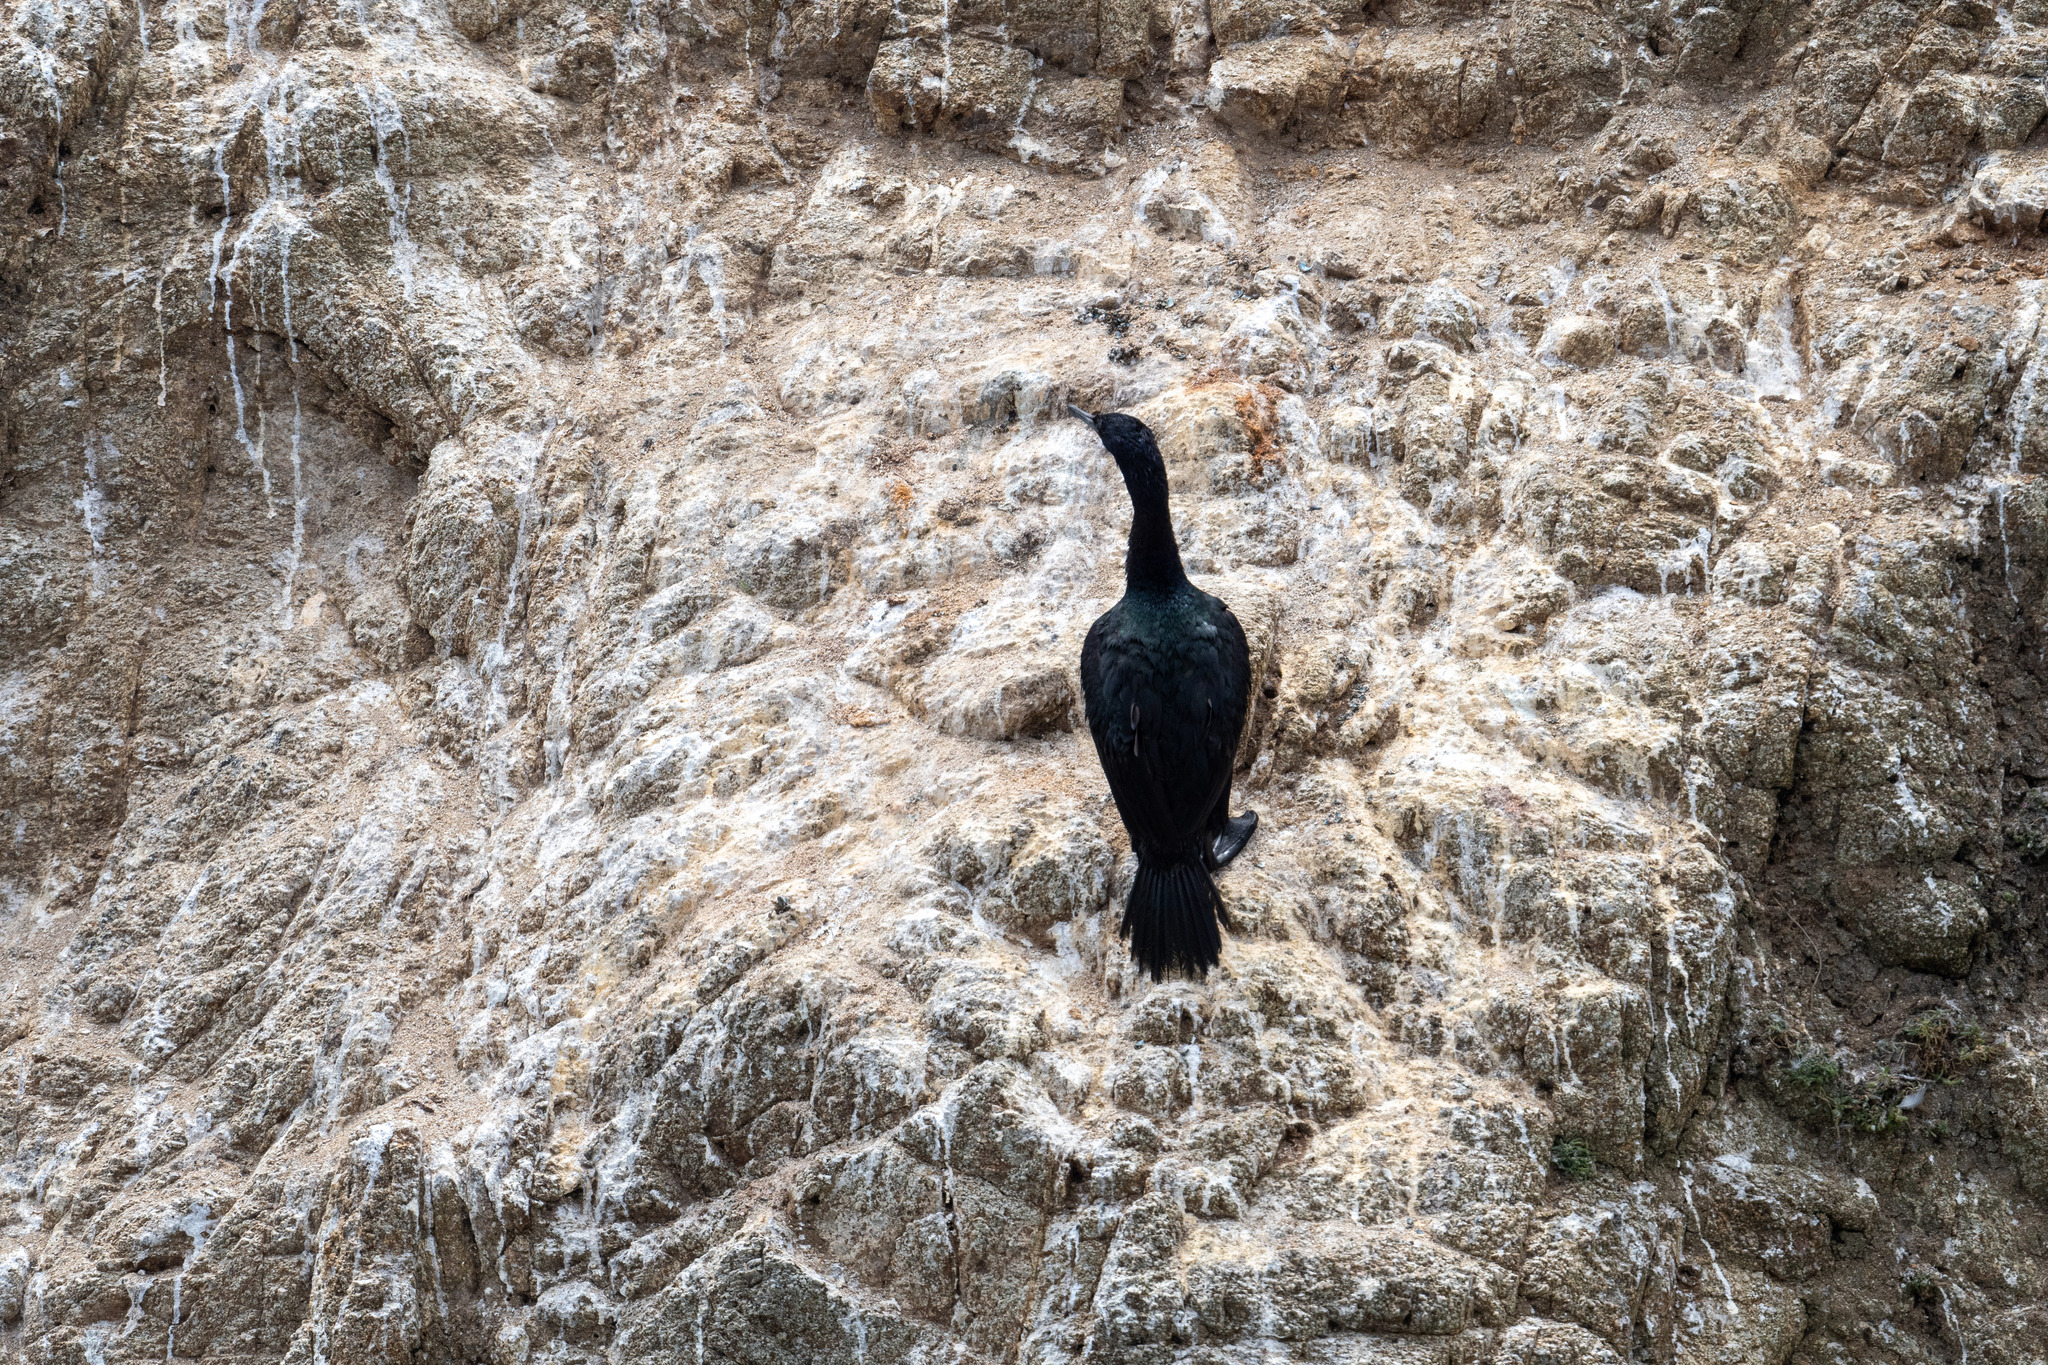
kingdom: Animalia
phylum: Chordata
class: Aves
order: Suliformes
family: Phalacrocoracidae
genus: Phalacrocorax
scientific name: Phalacrocorax pelagicus
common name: Pelagic cormorant
